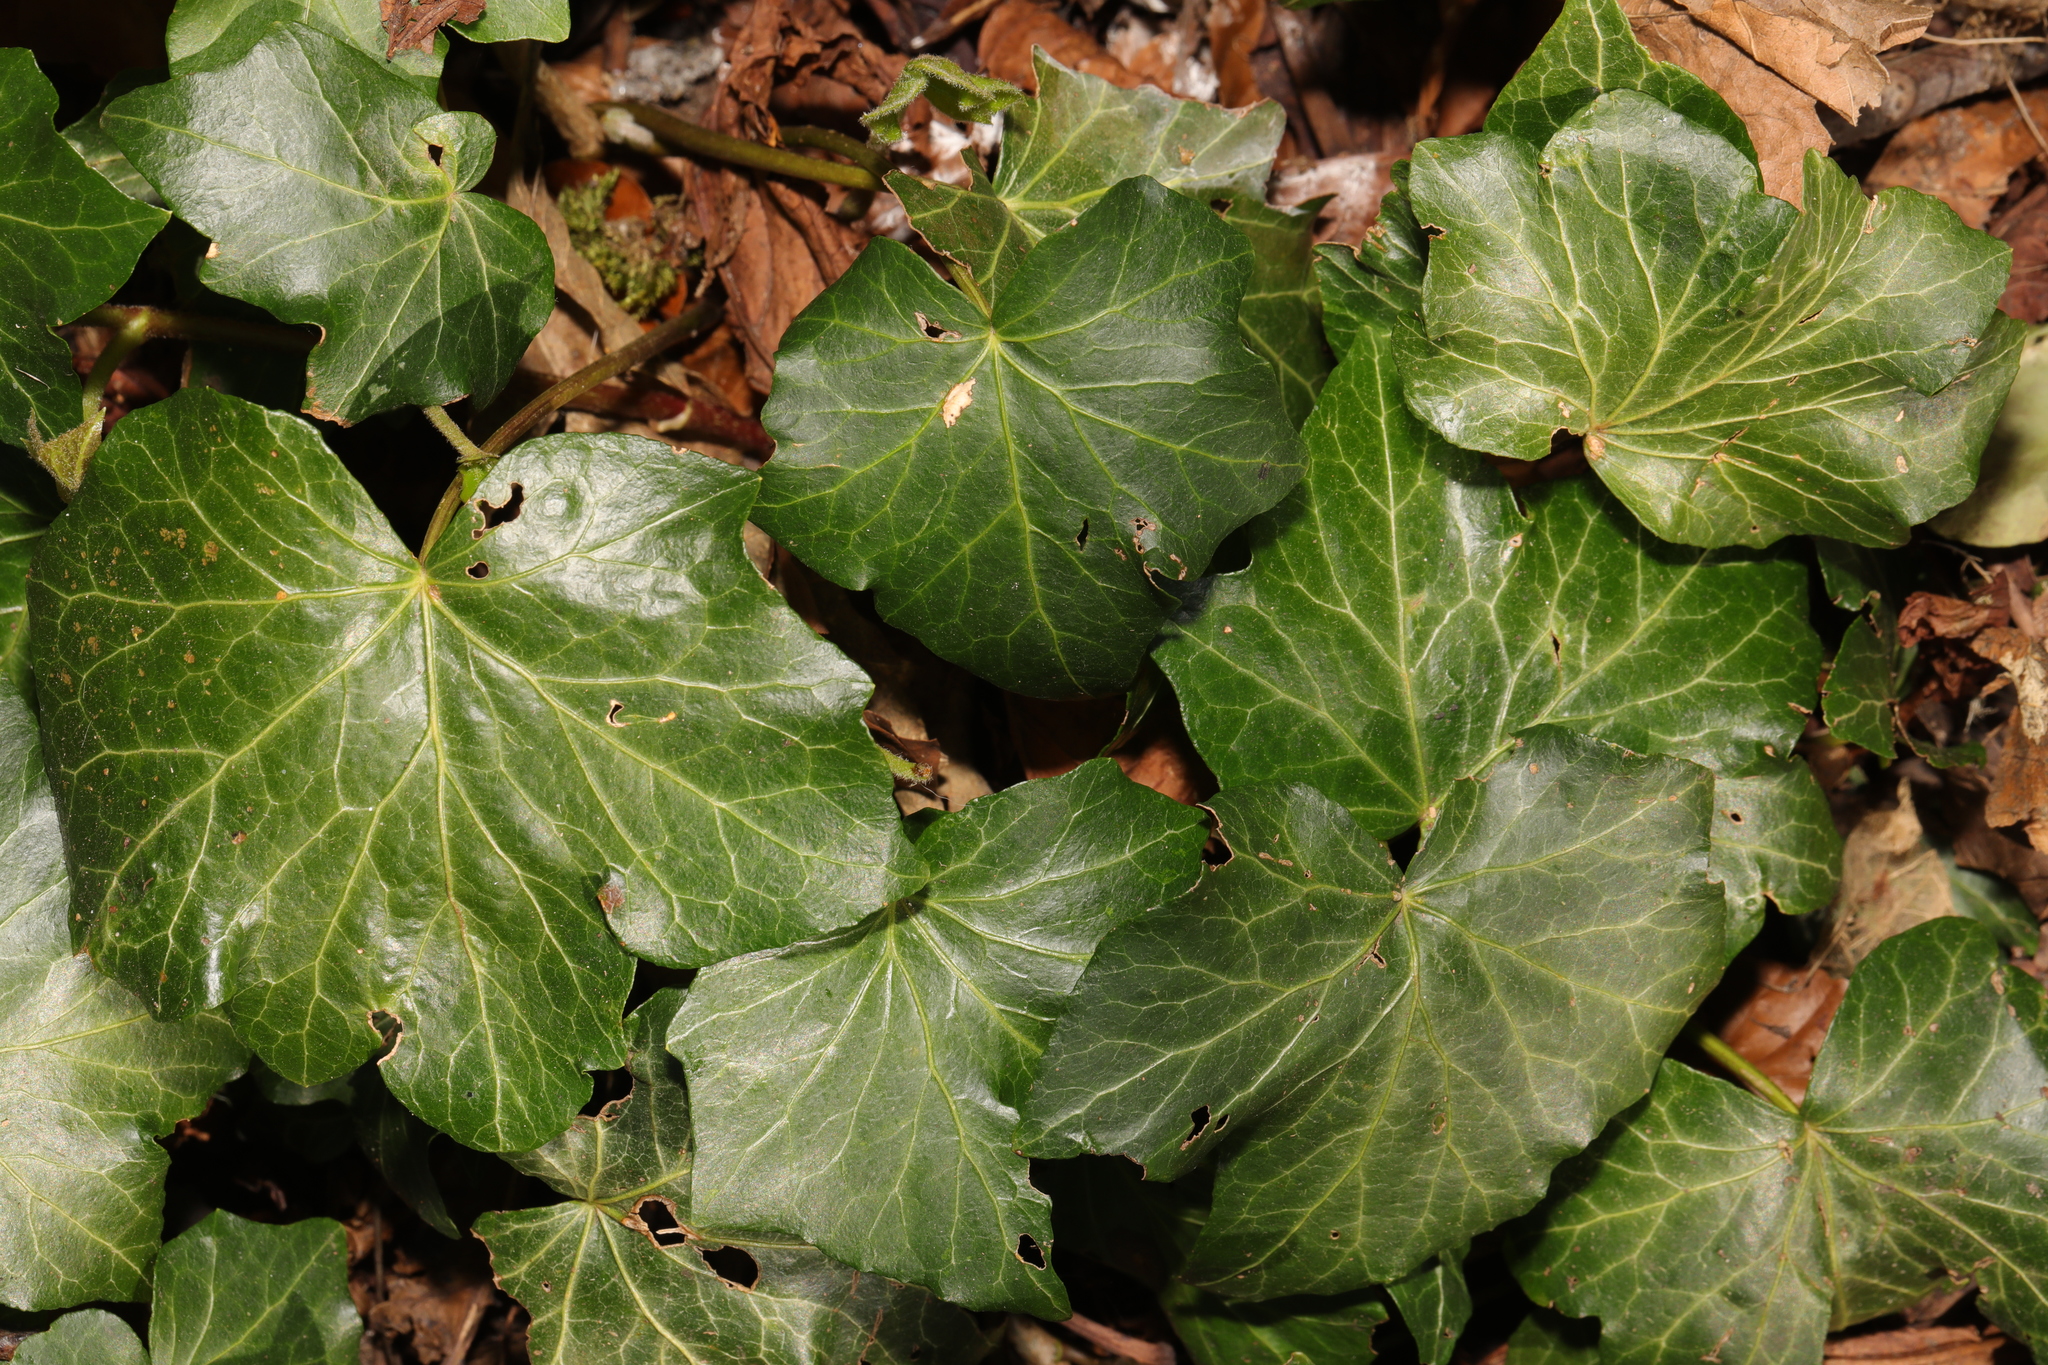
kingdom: Plantae
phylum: Tracheophyta
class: Magnoliopsida
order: Apiales
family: Araliaceae
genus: Hedera
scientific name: Hedera helix
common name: Ivy
